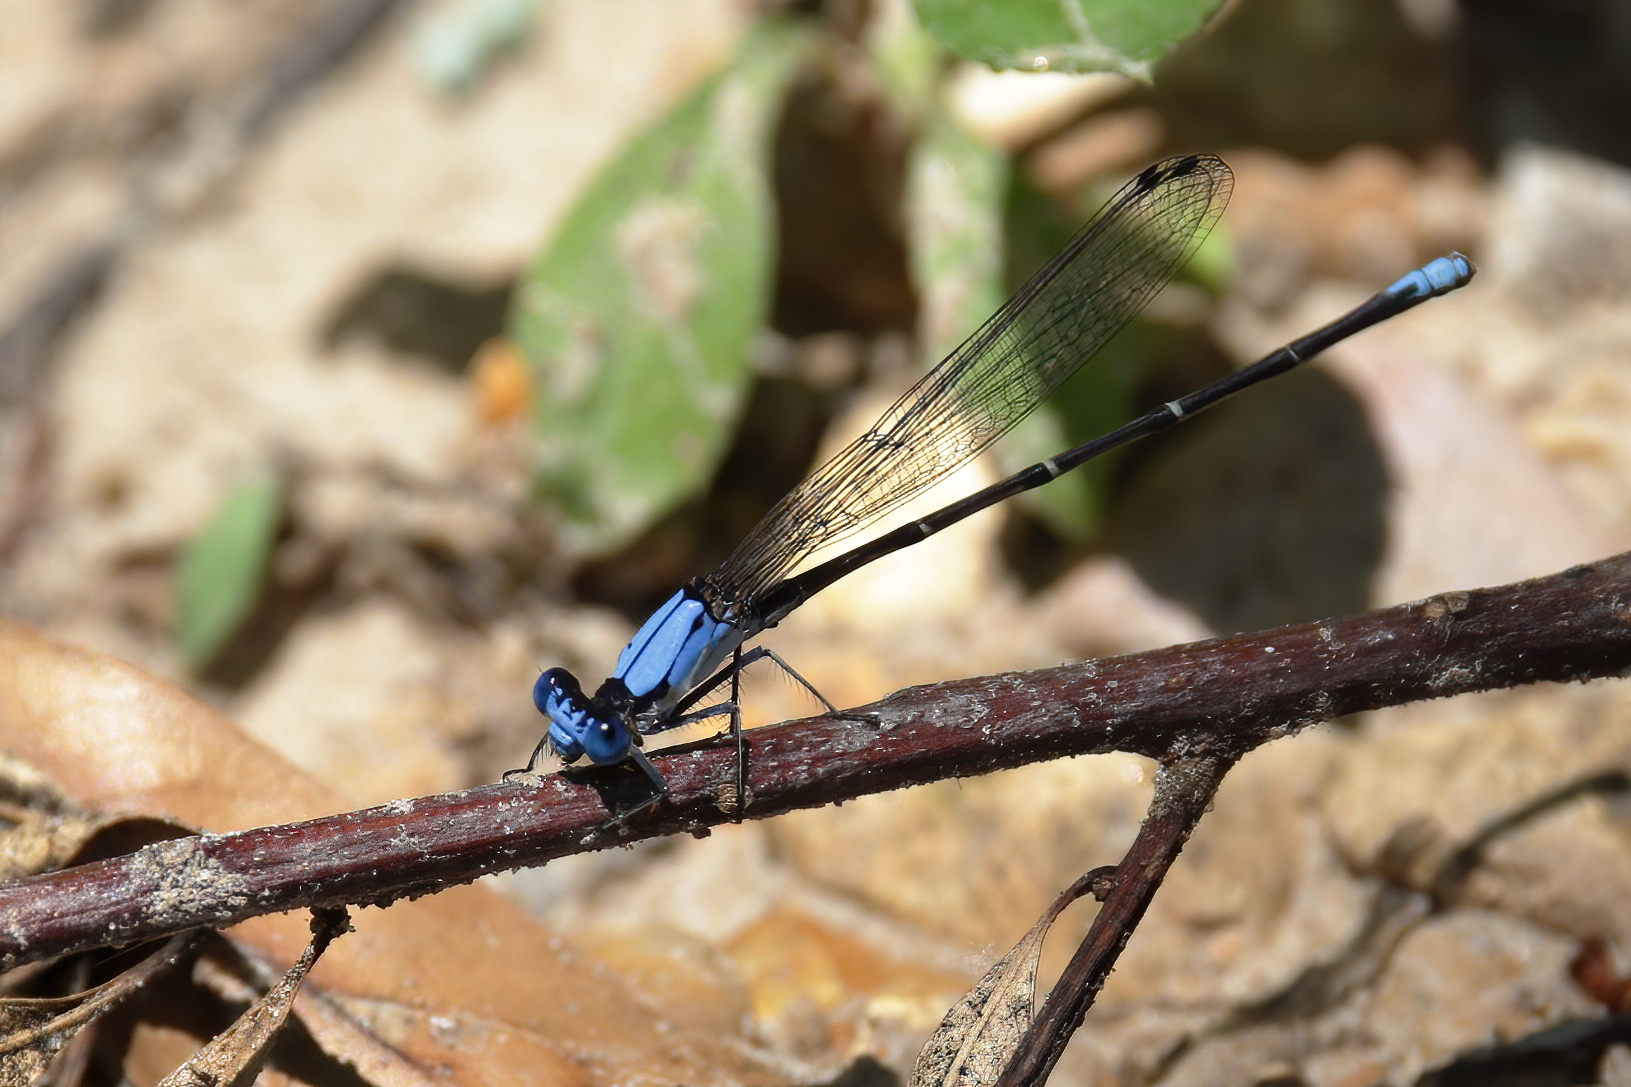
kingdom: Animalia
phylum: Arthropoda
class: Insecta
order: Odonata
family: Coenagrionidae
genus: Argia
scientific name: Argia apicalis
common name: Blue-fronted dancer
